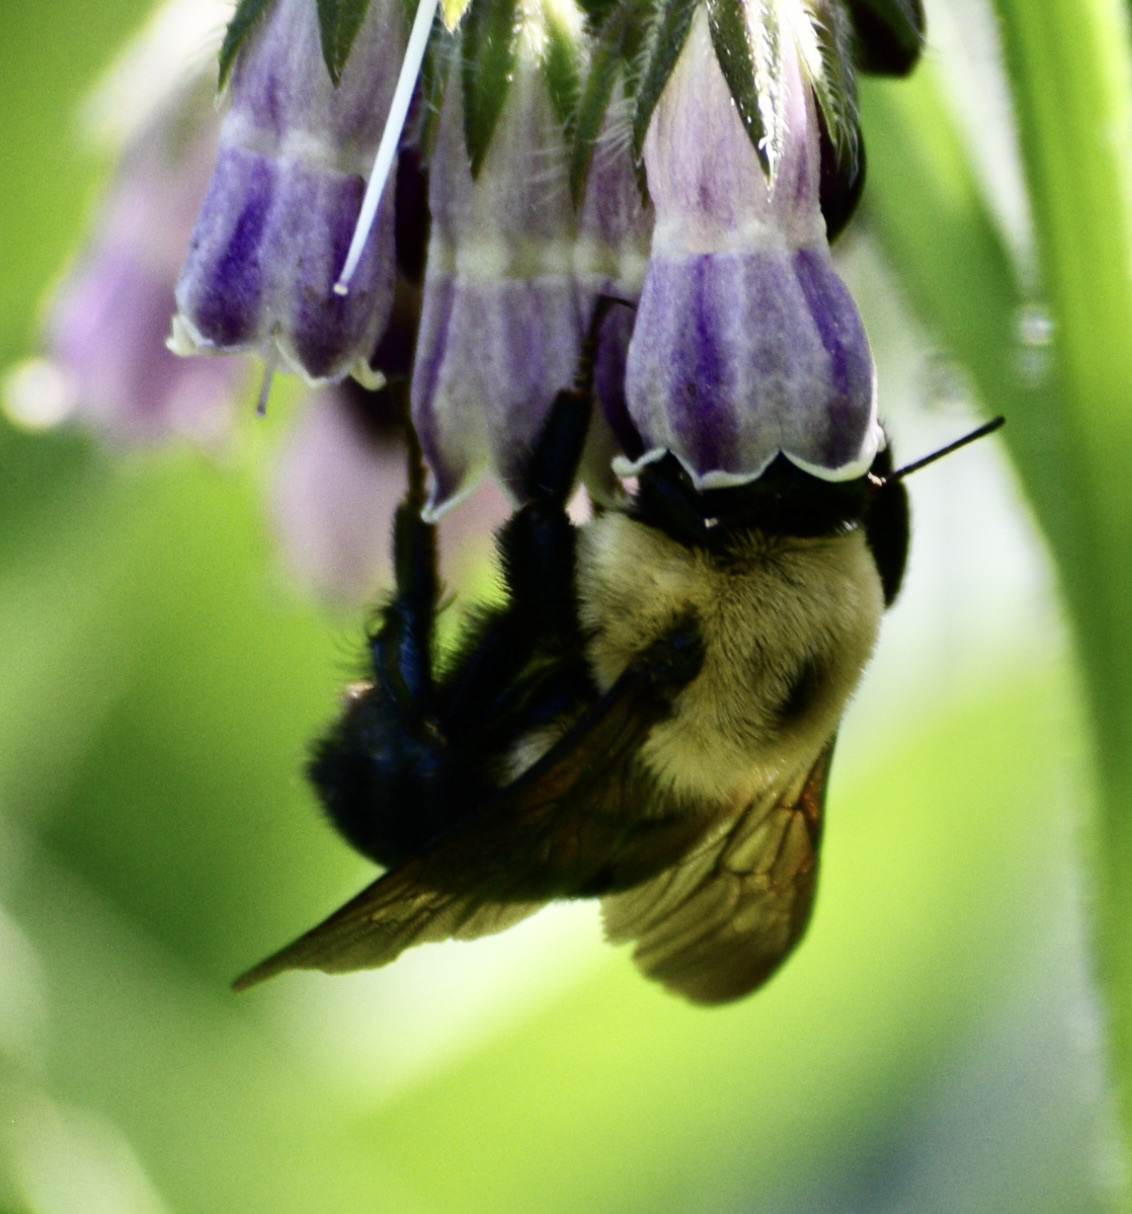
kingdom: Animalia
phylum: Arthropoda
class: Insecta
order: Hymenoptera
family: Apidae
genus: Bombus
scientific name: Bombus griseocollis
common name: Brown-belted bumble bee
